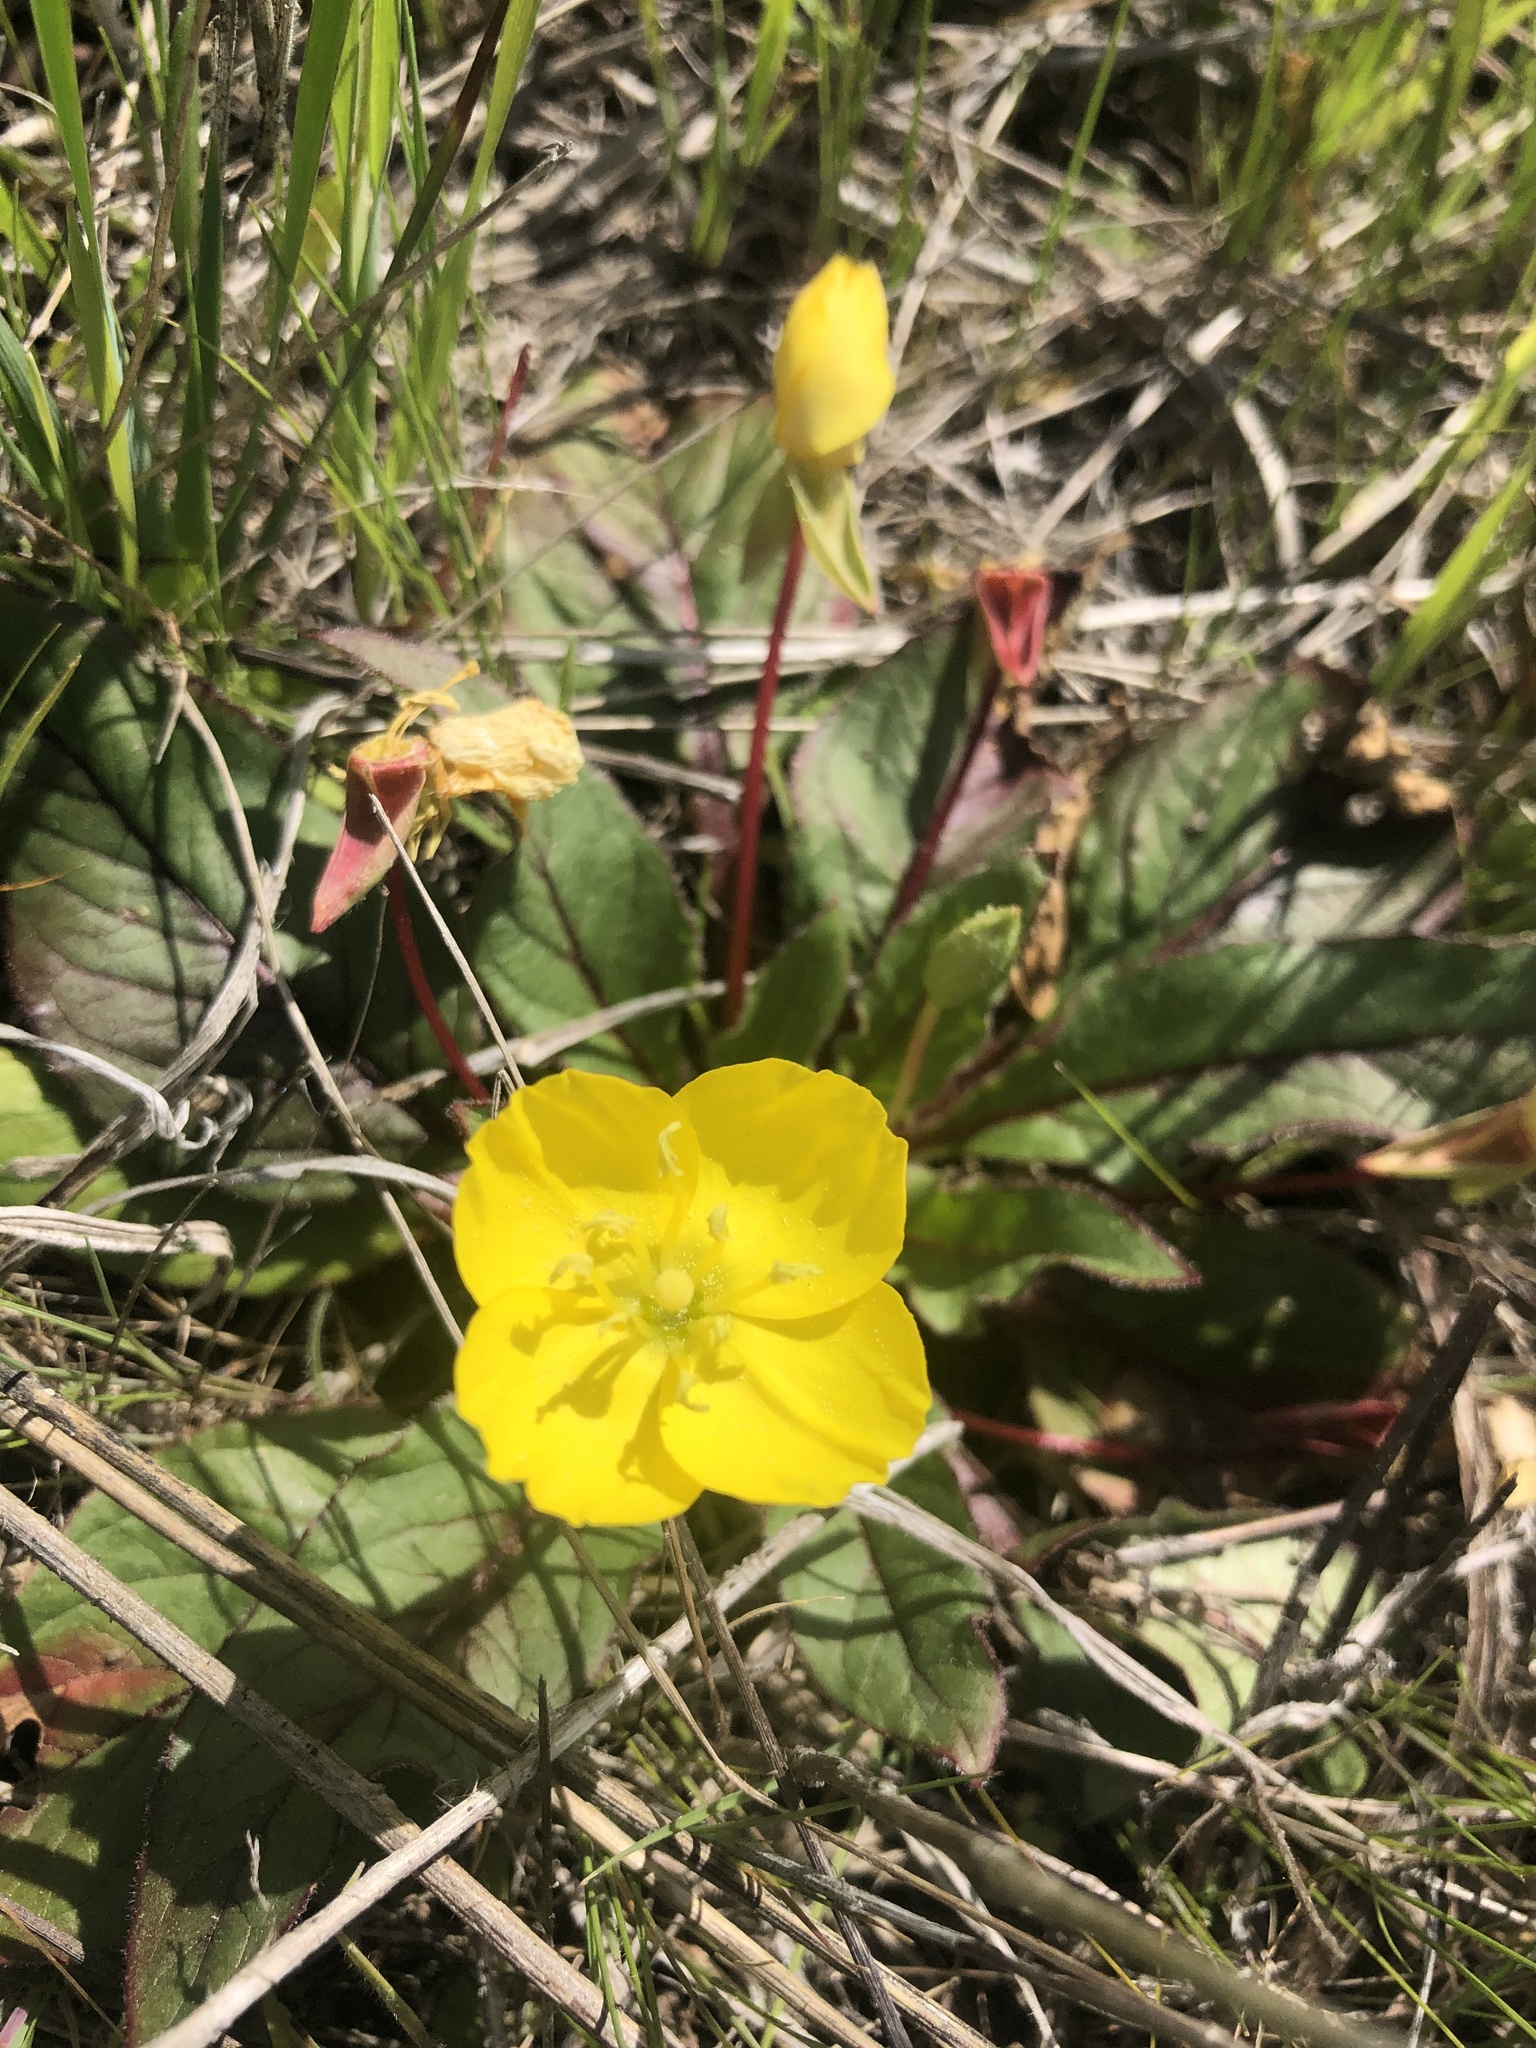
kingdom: Plantae
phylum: Tracheophyta
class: Magnoliopsida
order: Myrtales
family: Onagraceae
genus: Taraxia
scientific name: Taraxia ovata
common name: Goldeneggs
